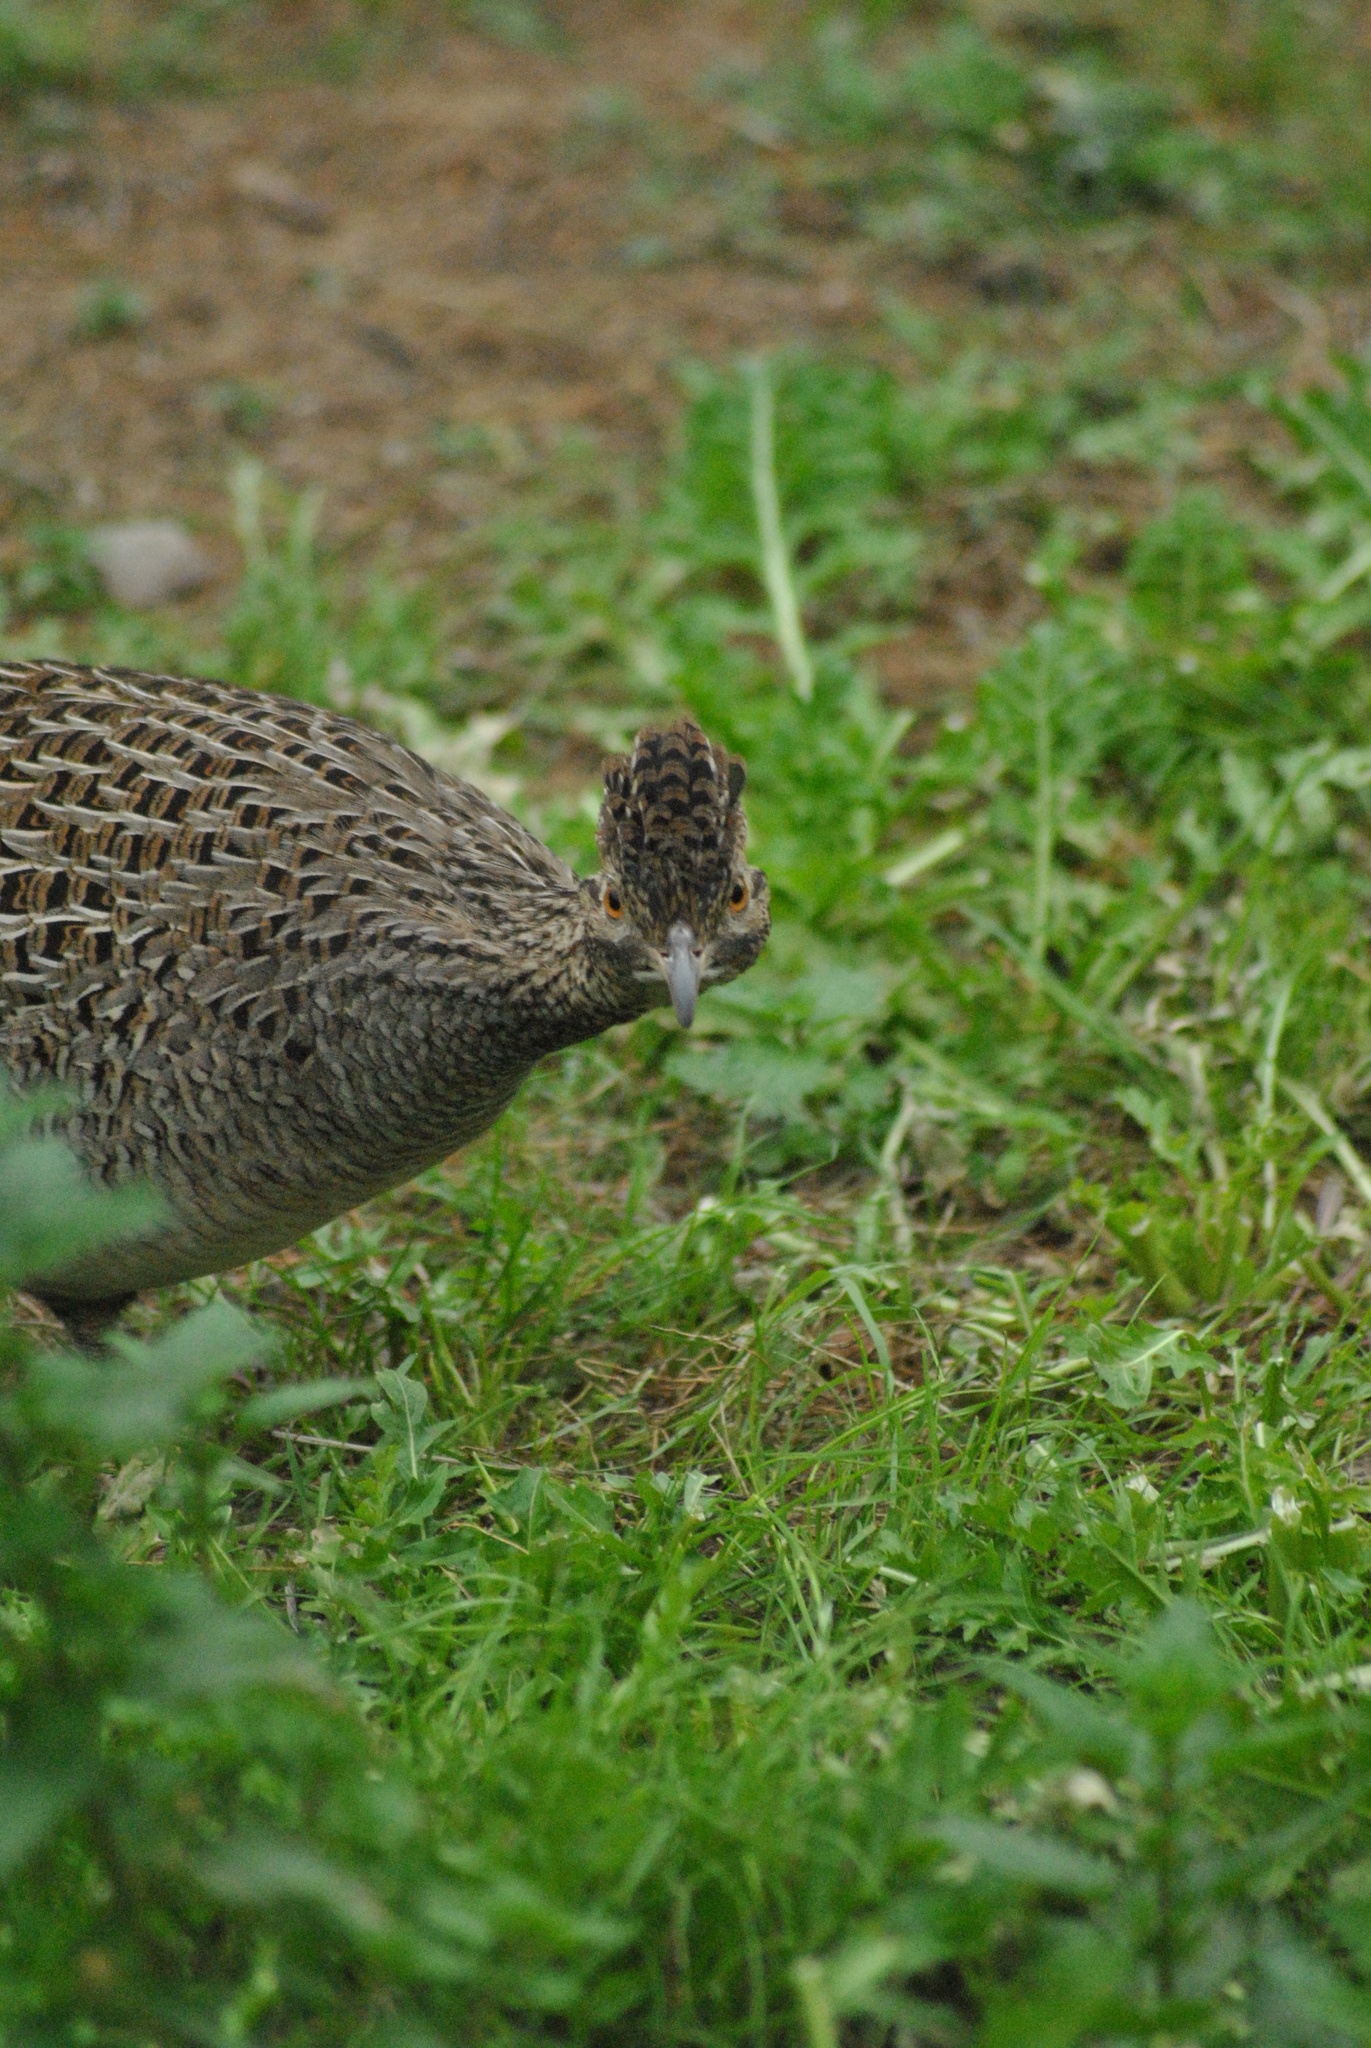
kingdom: Animalia
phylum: Chordata
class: Aves
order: Tinamiformes
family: Tinamidae
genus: Nothoprocta
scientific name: Nothoprocta cinerascens
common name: Brushland tinamou
